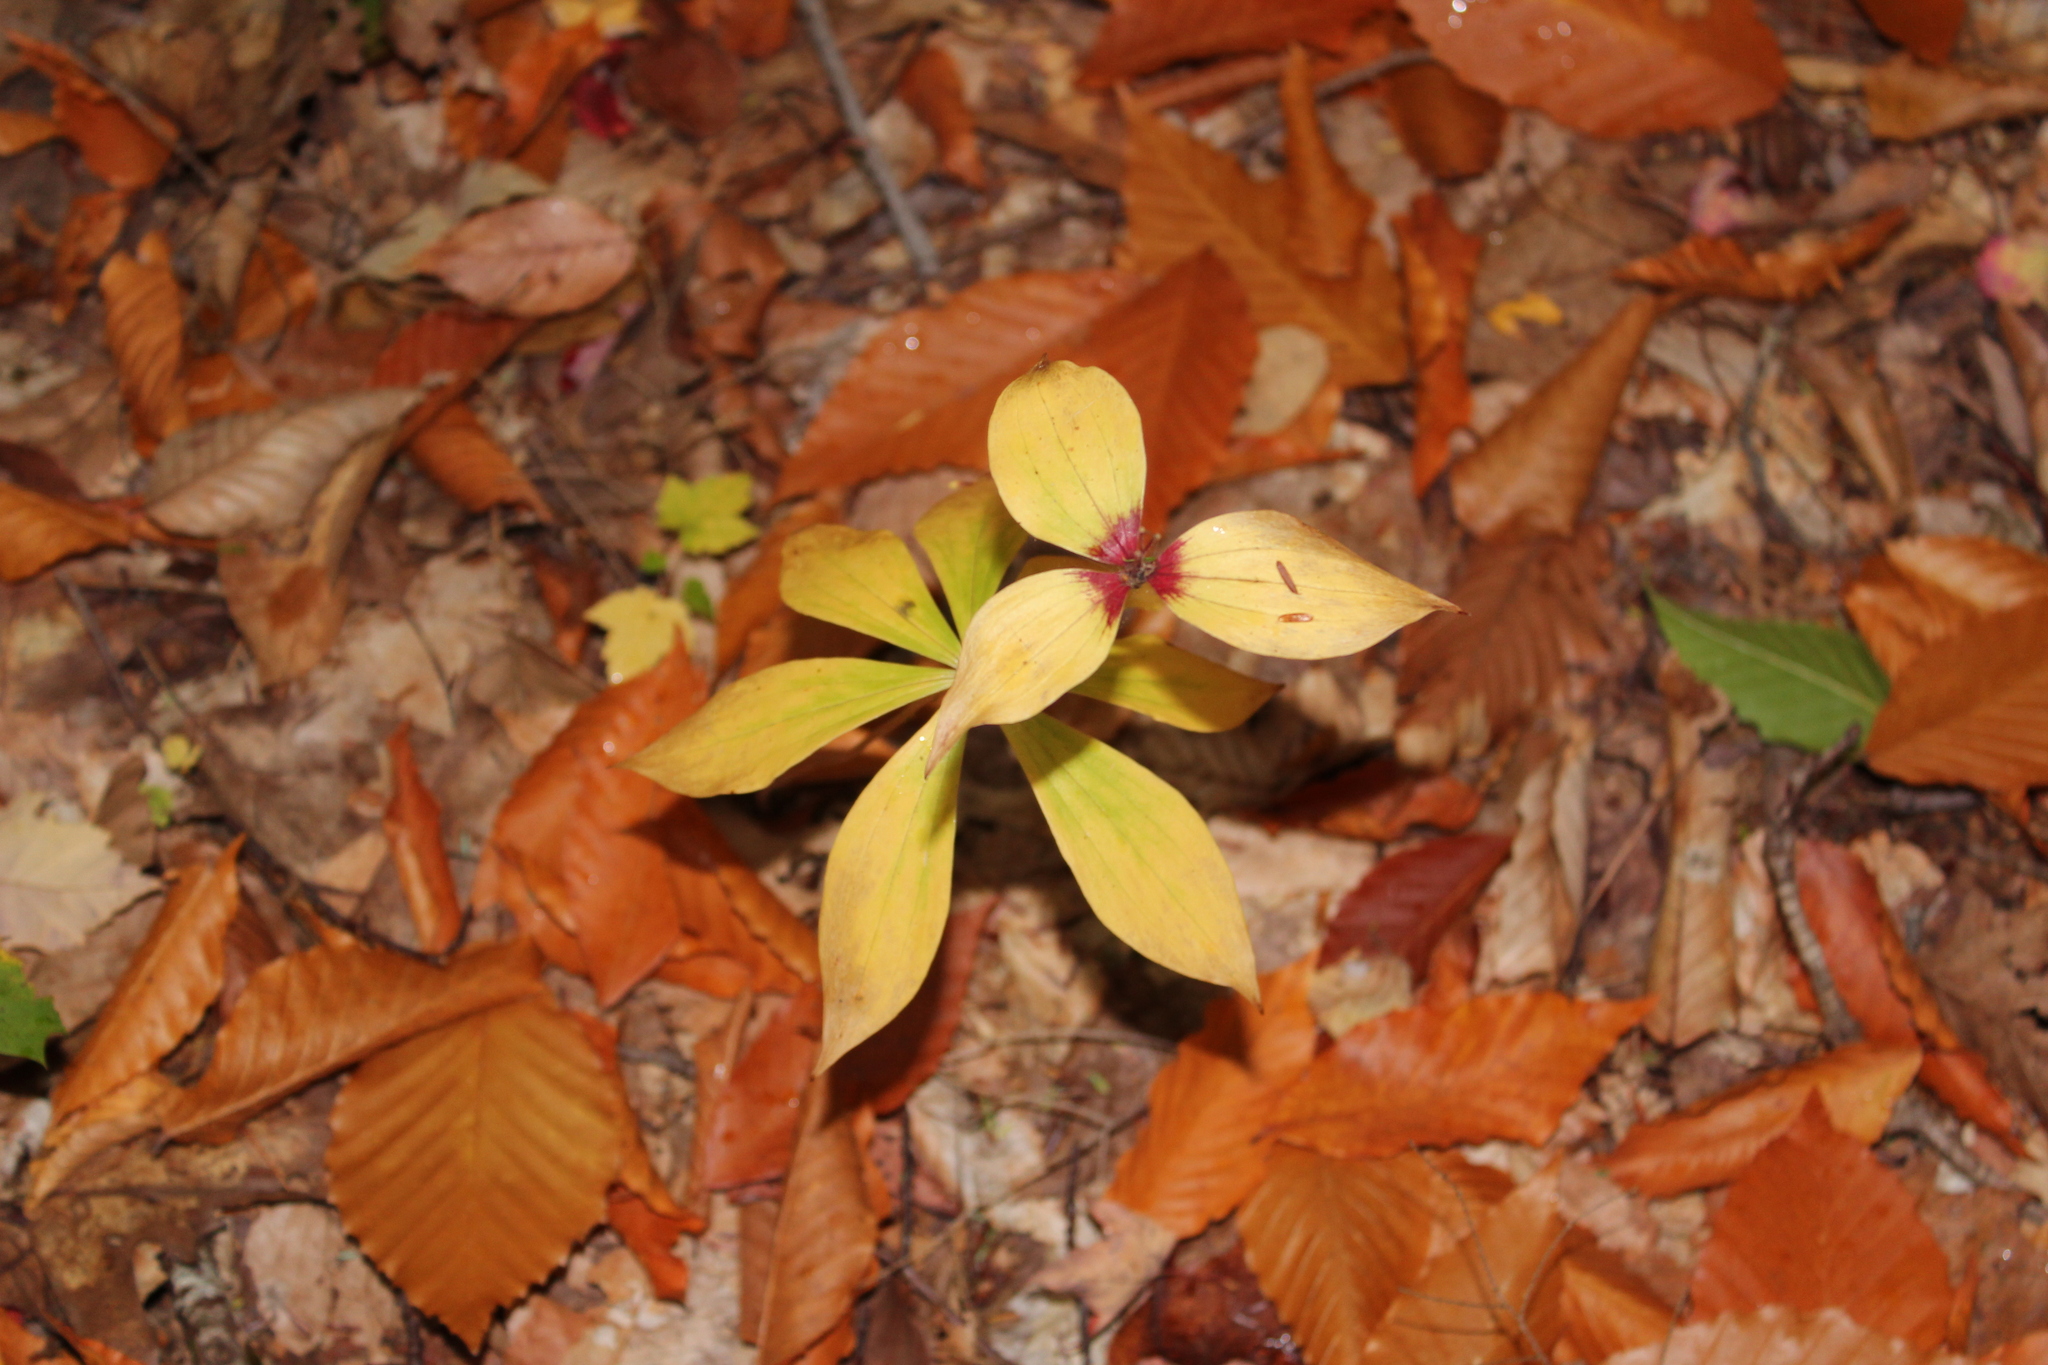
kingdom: Plantae
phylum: Tracheophyta
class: Liliopsida
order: Liliales
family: Liliaceae
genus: Medeola
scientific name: Medeola virginiana
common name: Indian cucumber-root
